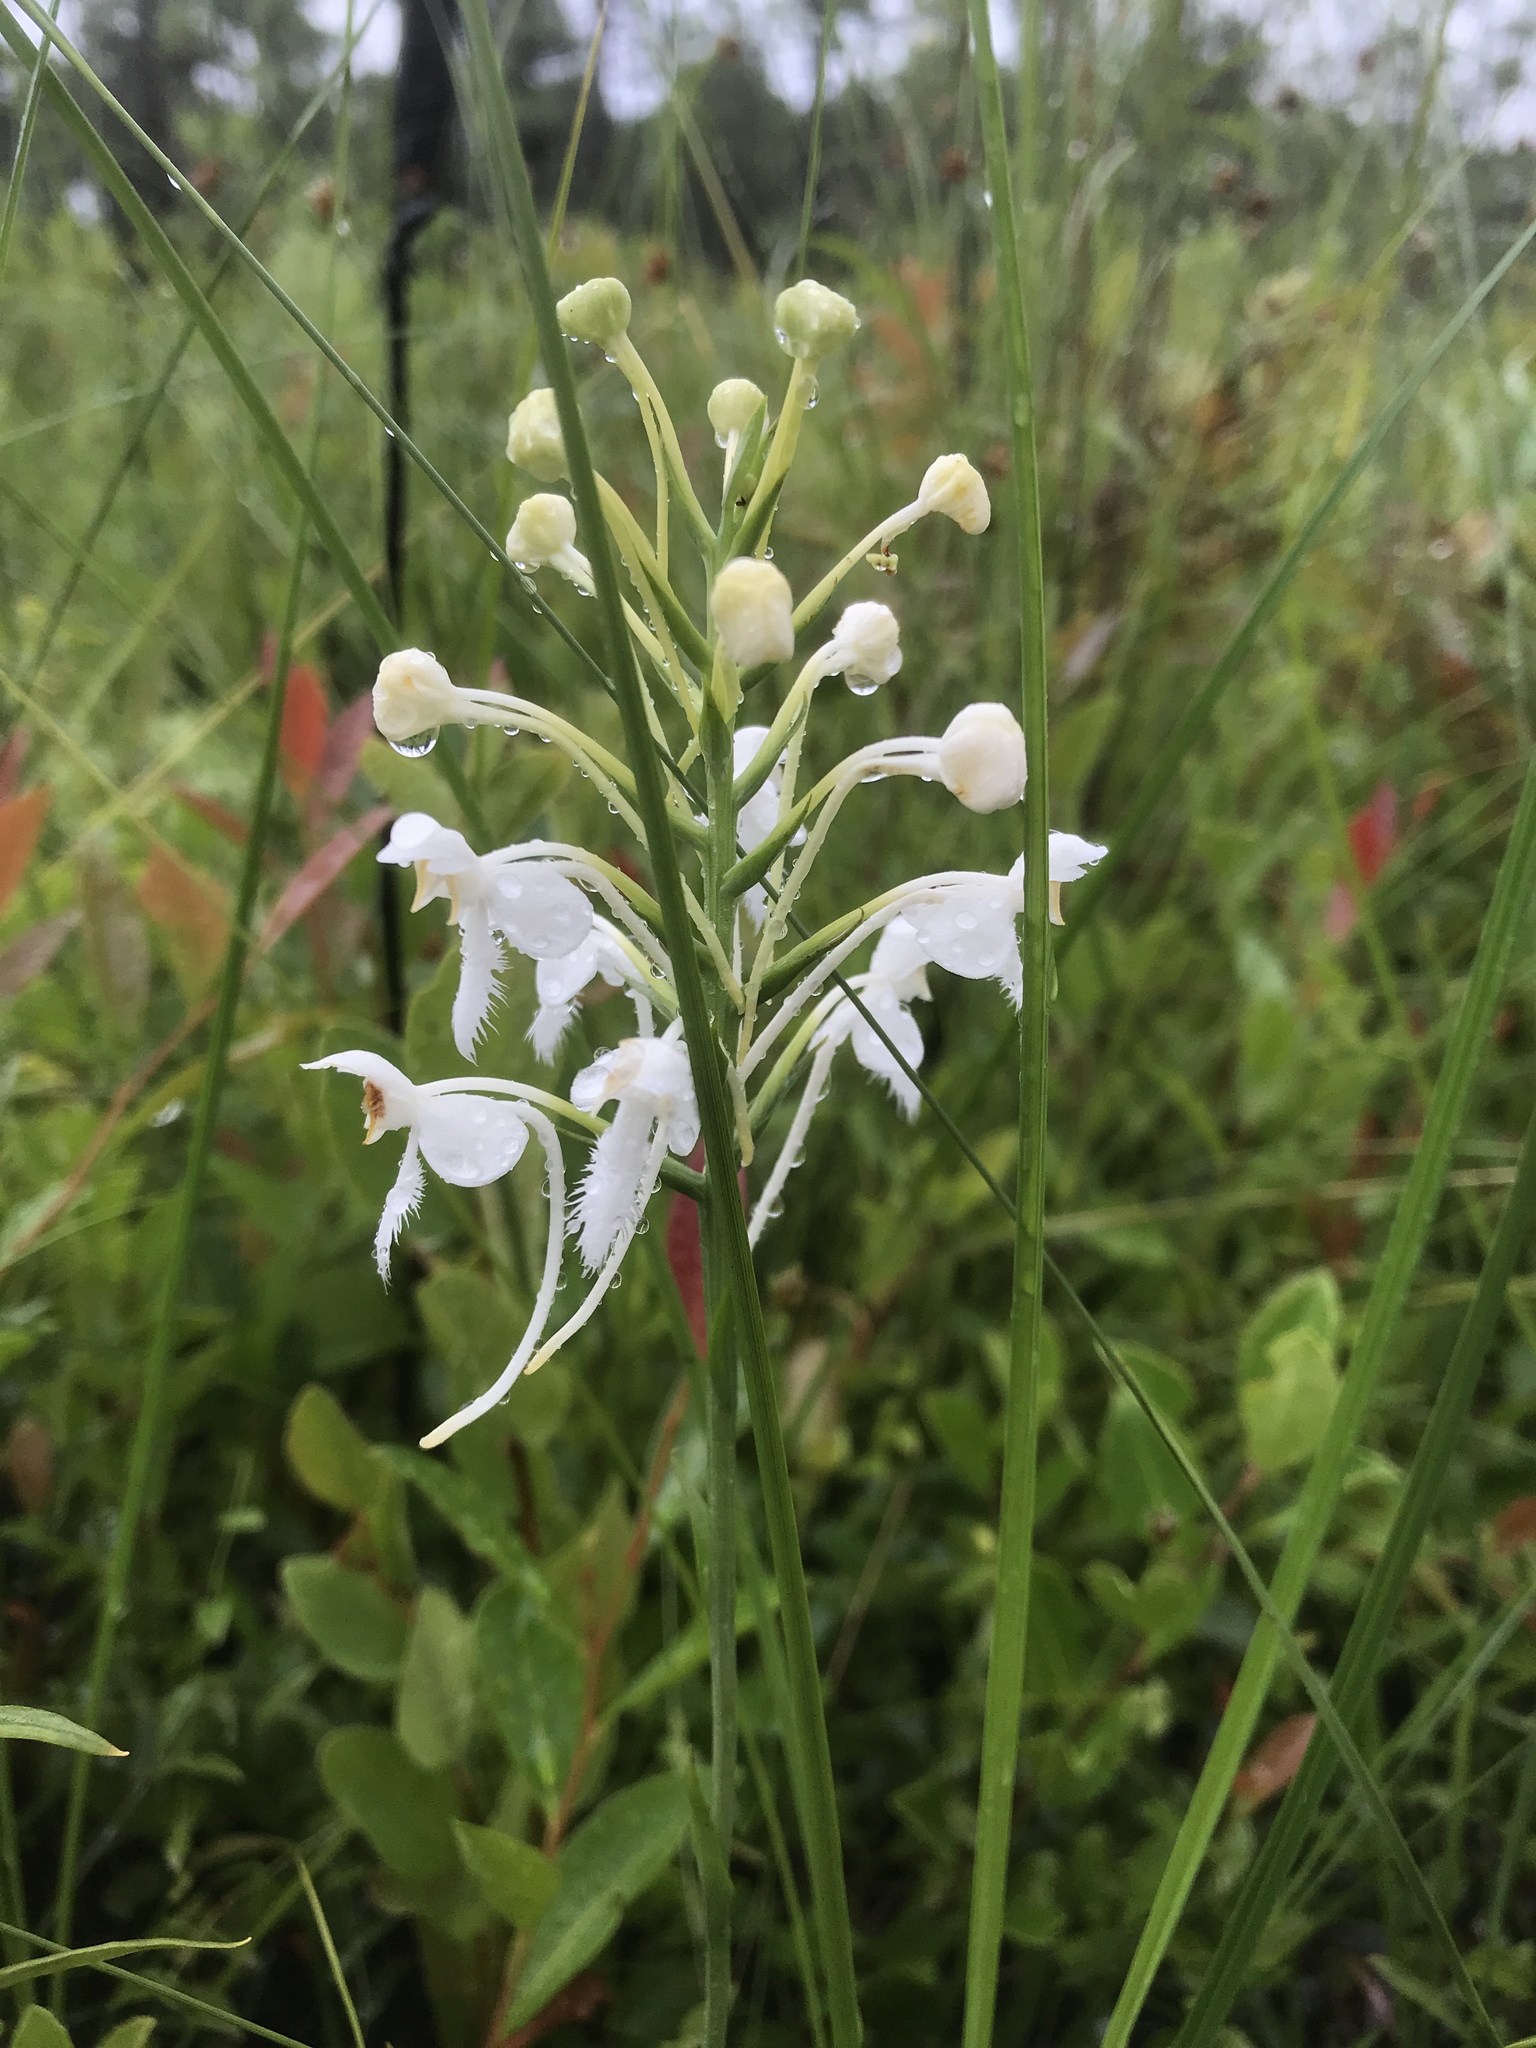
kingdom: Plantae
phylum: Tracheophyta
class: Liliopsida
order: Asparagales
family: Orchidaceae
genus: Platanthera
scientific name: Platanthera blephariglottis
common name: White fringed orchid
